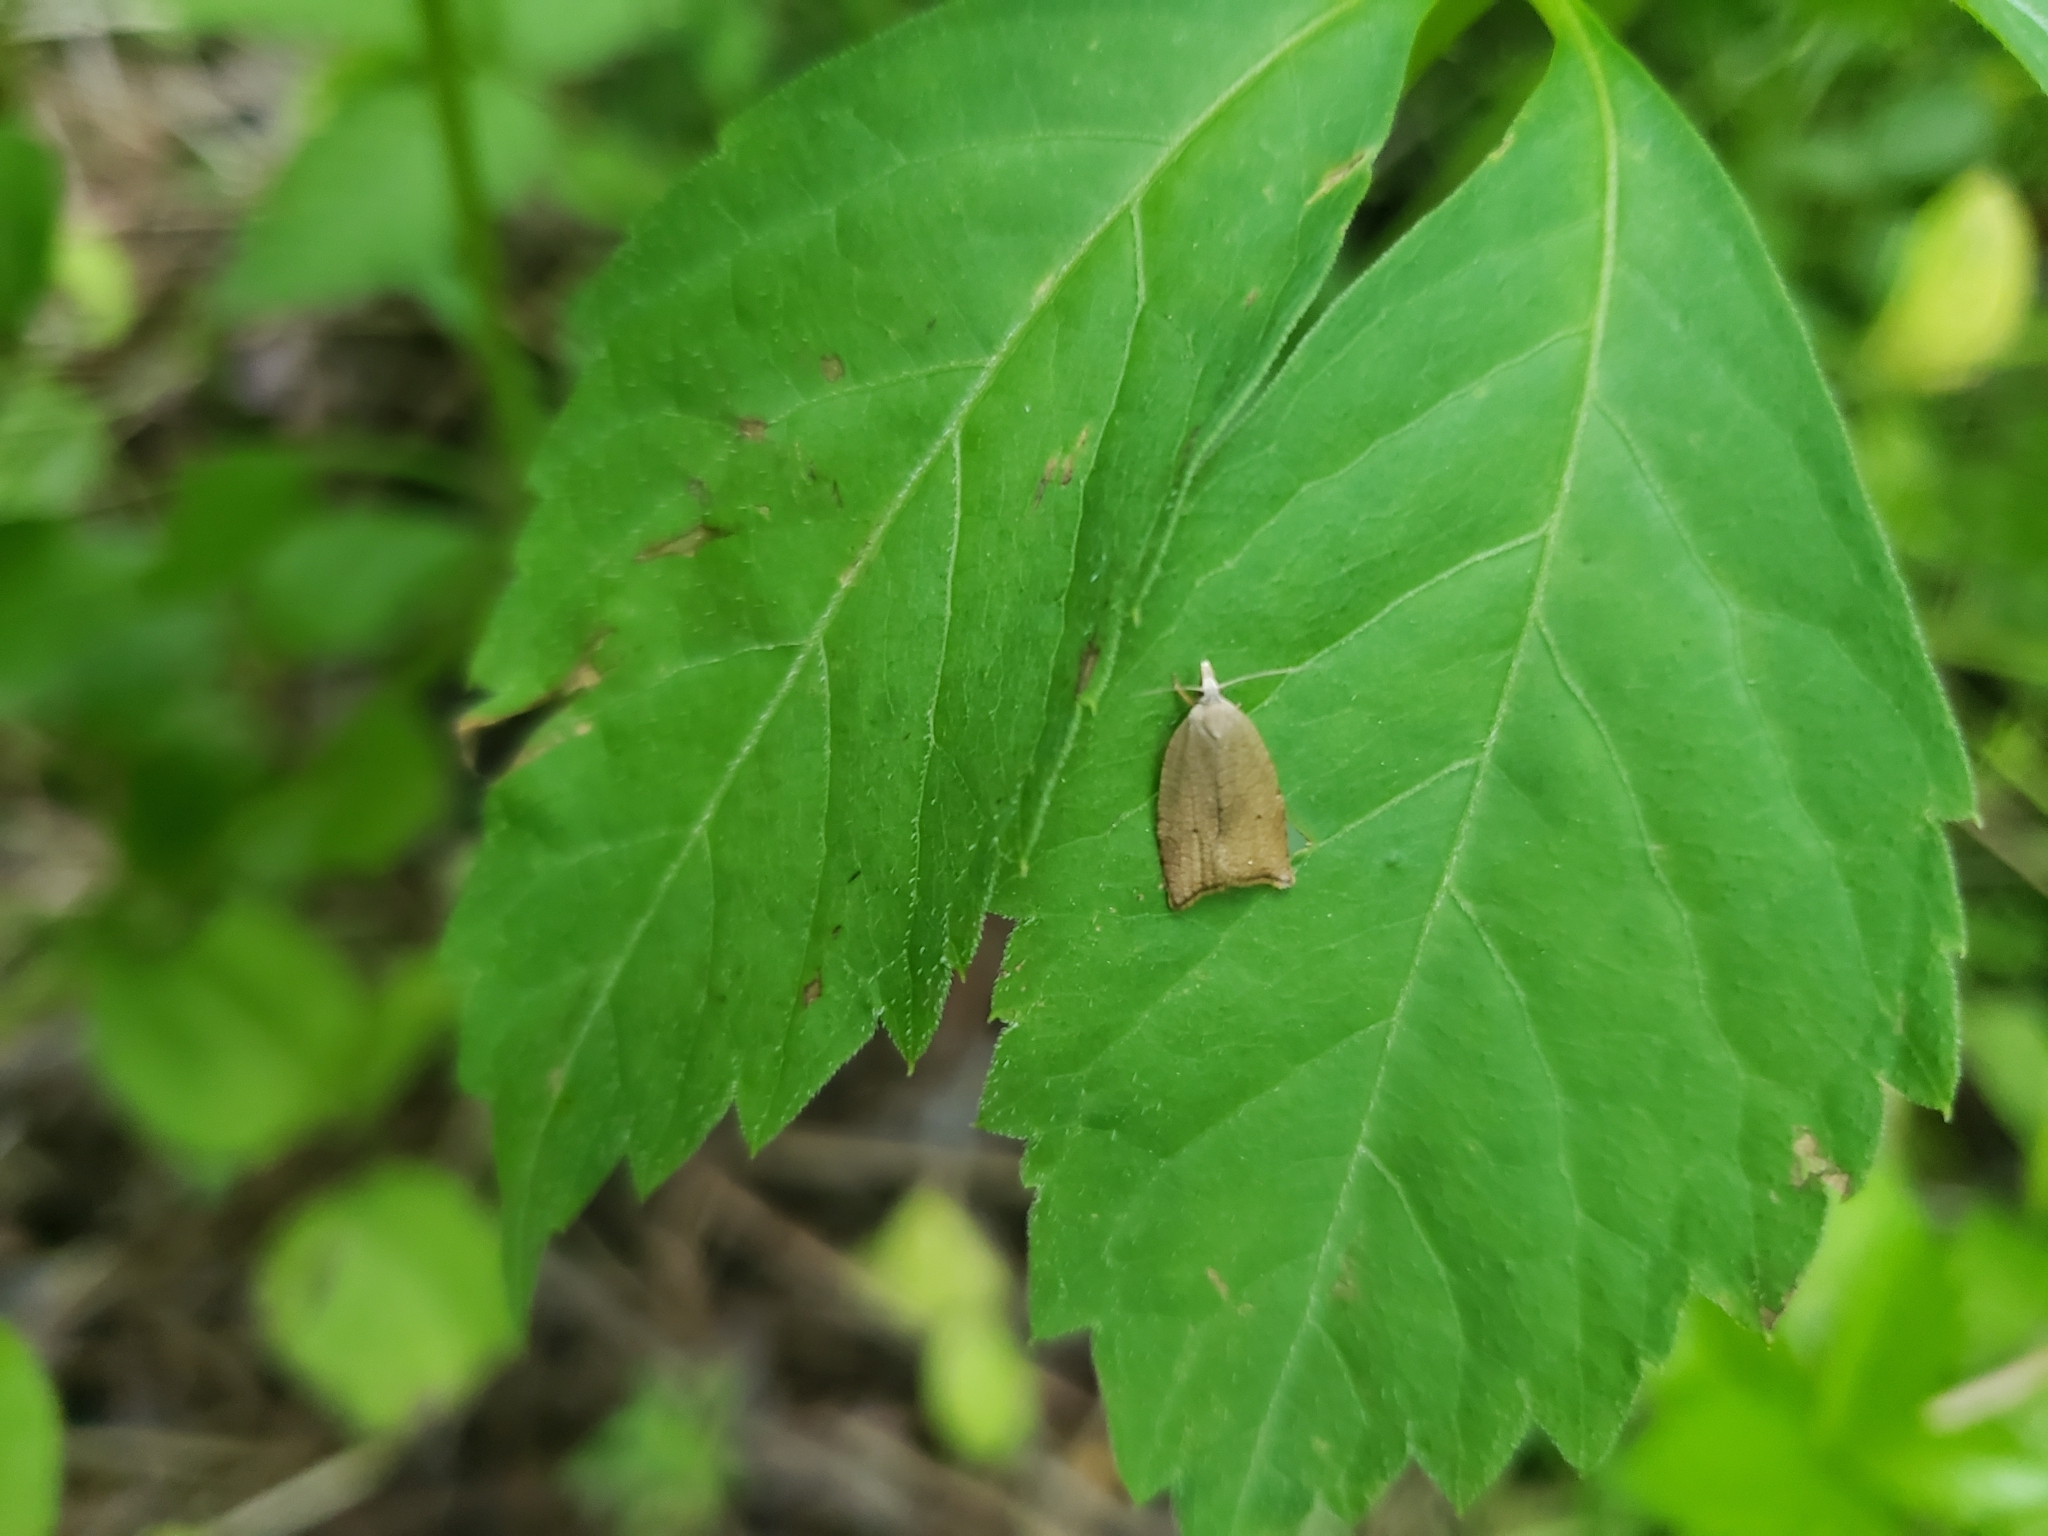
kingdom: Animalia
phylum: Arthropoda
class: Insecta
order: Lepidoptera
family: Tortricidae
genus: Coelostathma
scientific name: Coelostathma discopunctana
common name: Batman moth
